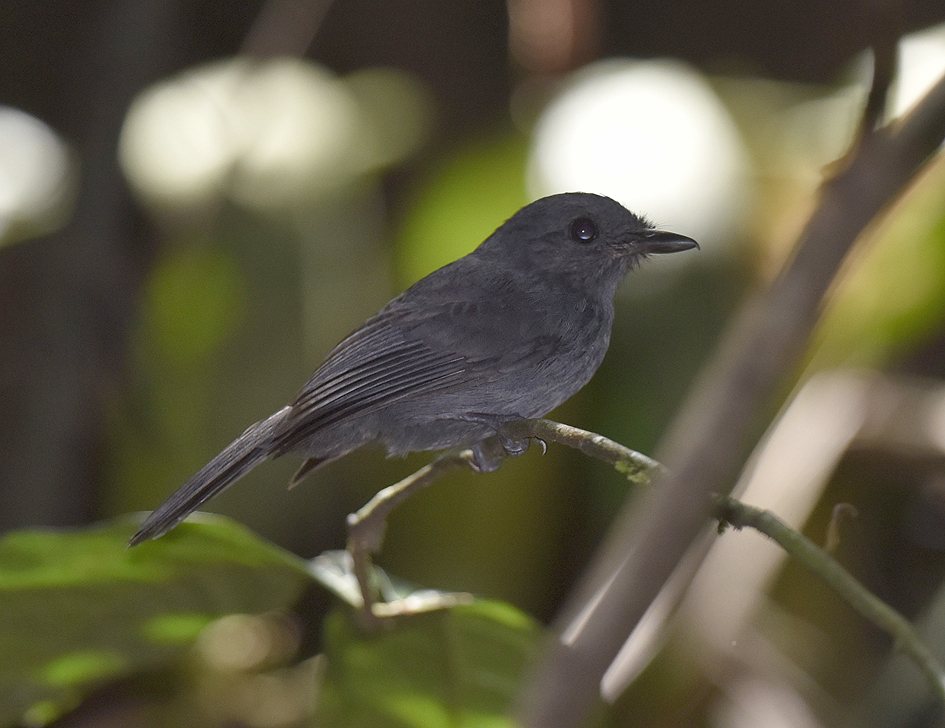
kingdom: Animalia
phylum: Chordata
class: Aves
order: Passeriformes
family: Thamnophilidae
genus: Thamnomanes
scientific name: Thamnomanes caesius
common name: Cinereous antshrike
